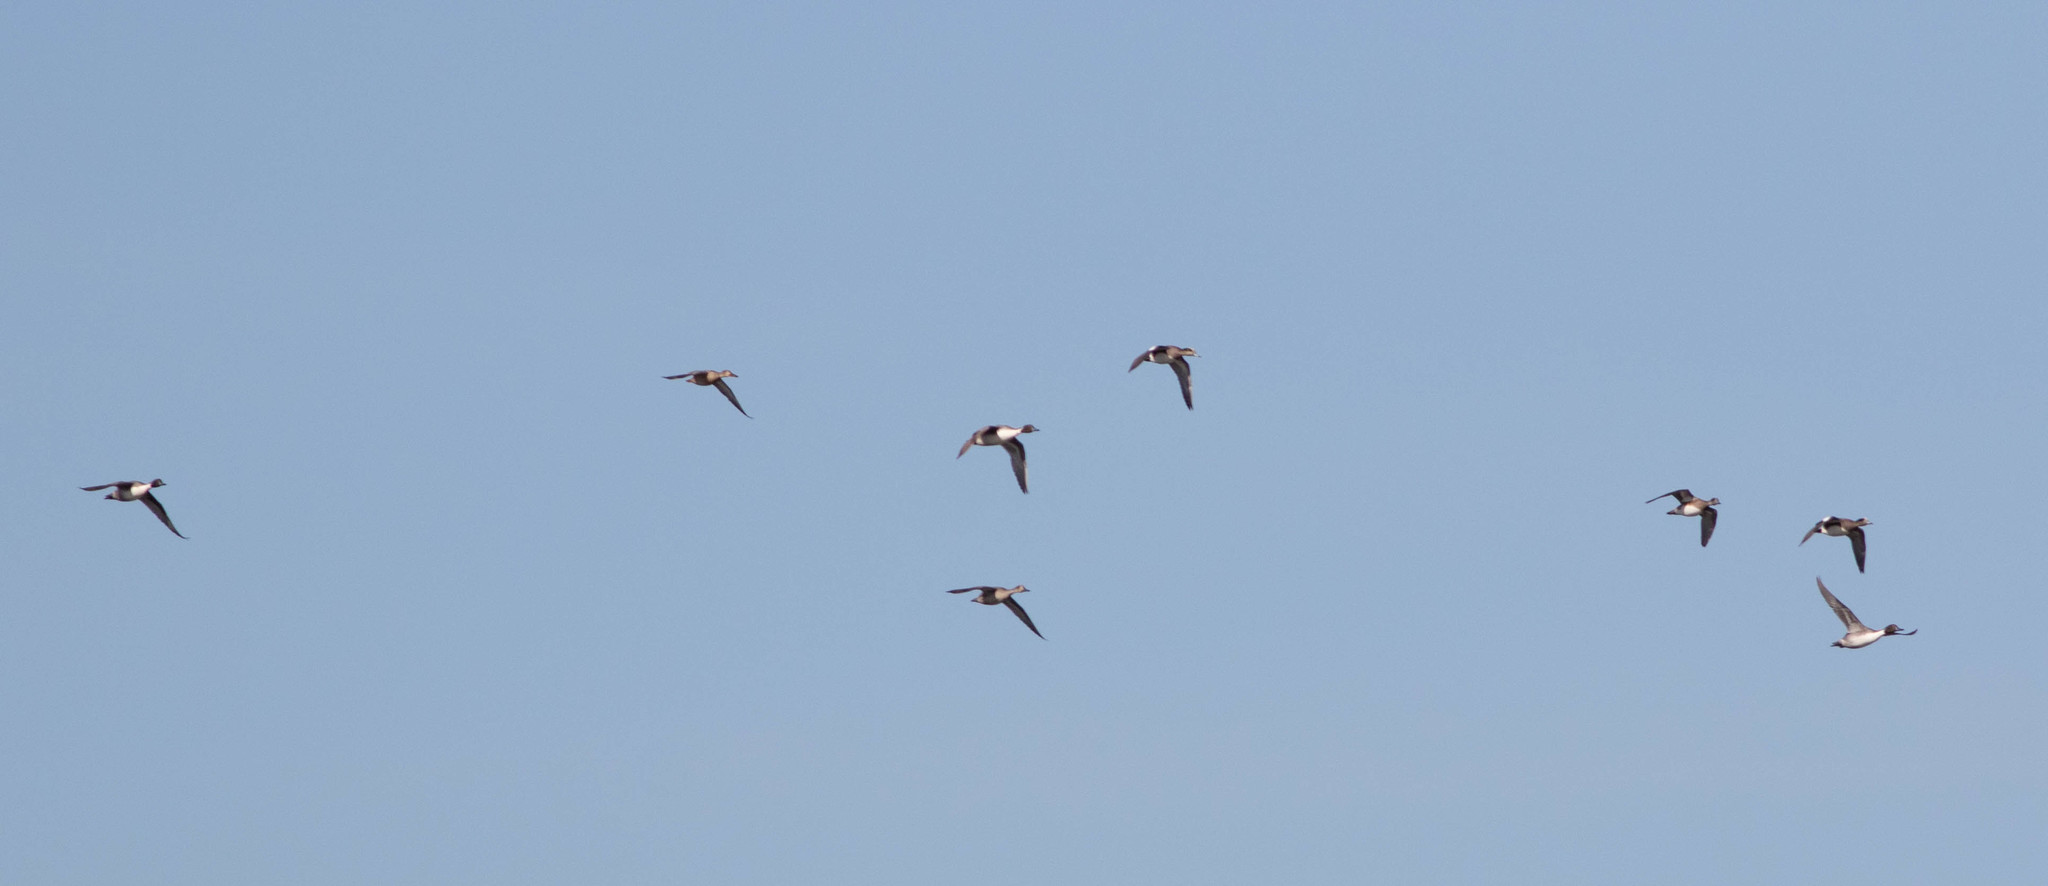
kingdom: Animalia
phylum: Chordata
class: Aves
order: Anseriformes
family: Anatidae
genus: Anas
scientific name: Anas acuta
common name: Northern pintail
